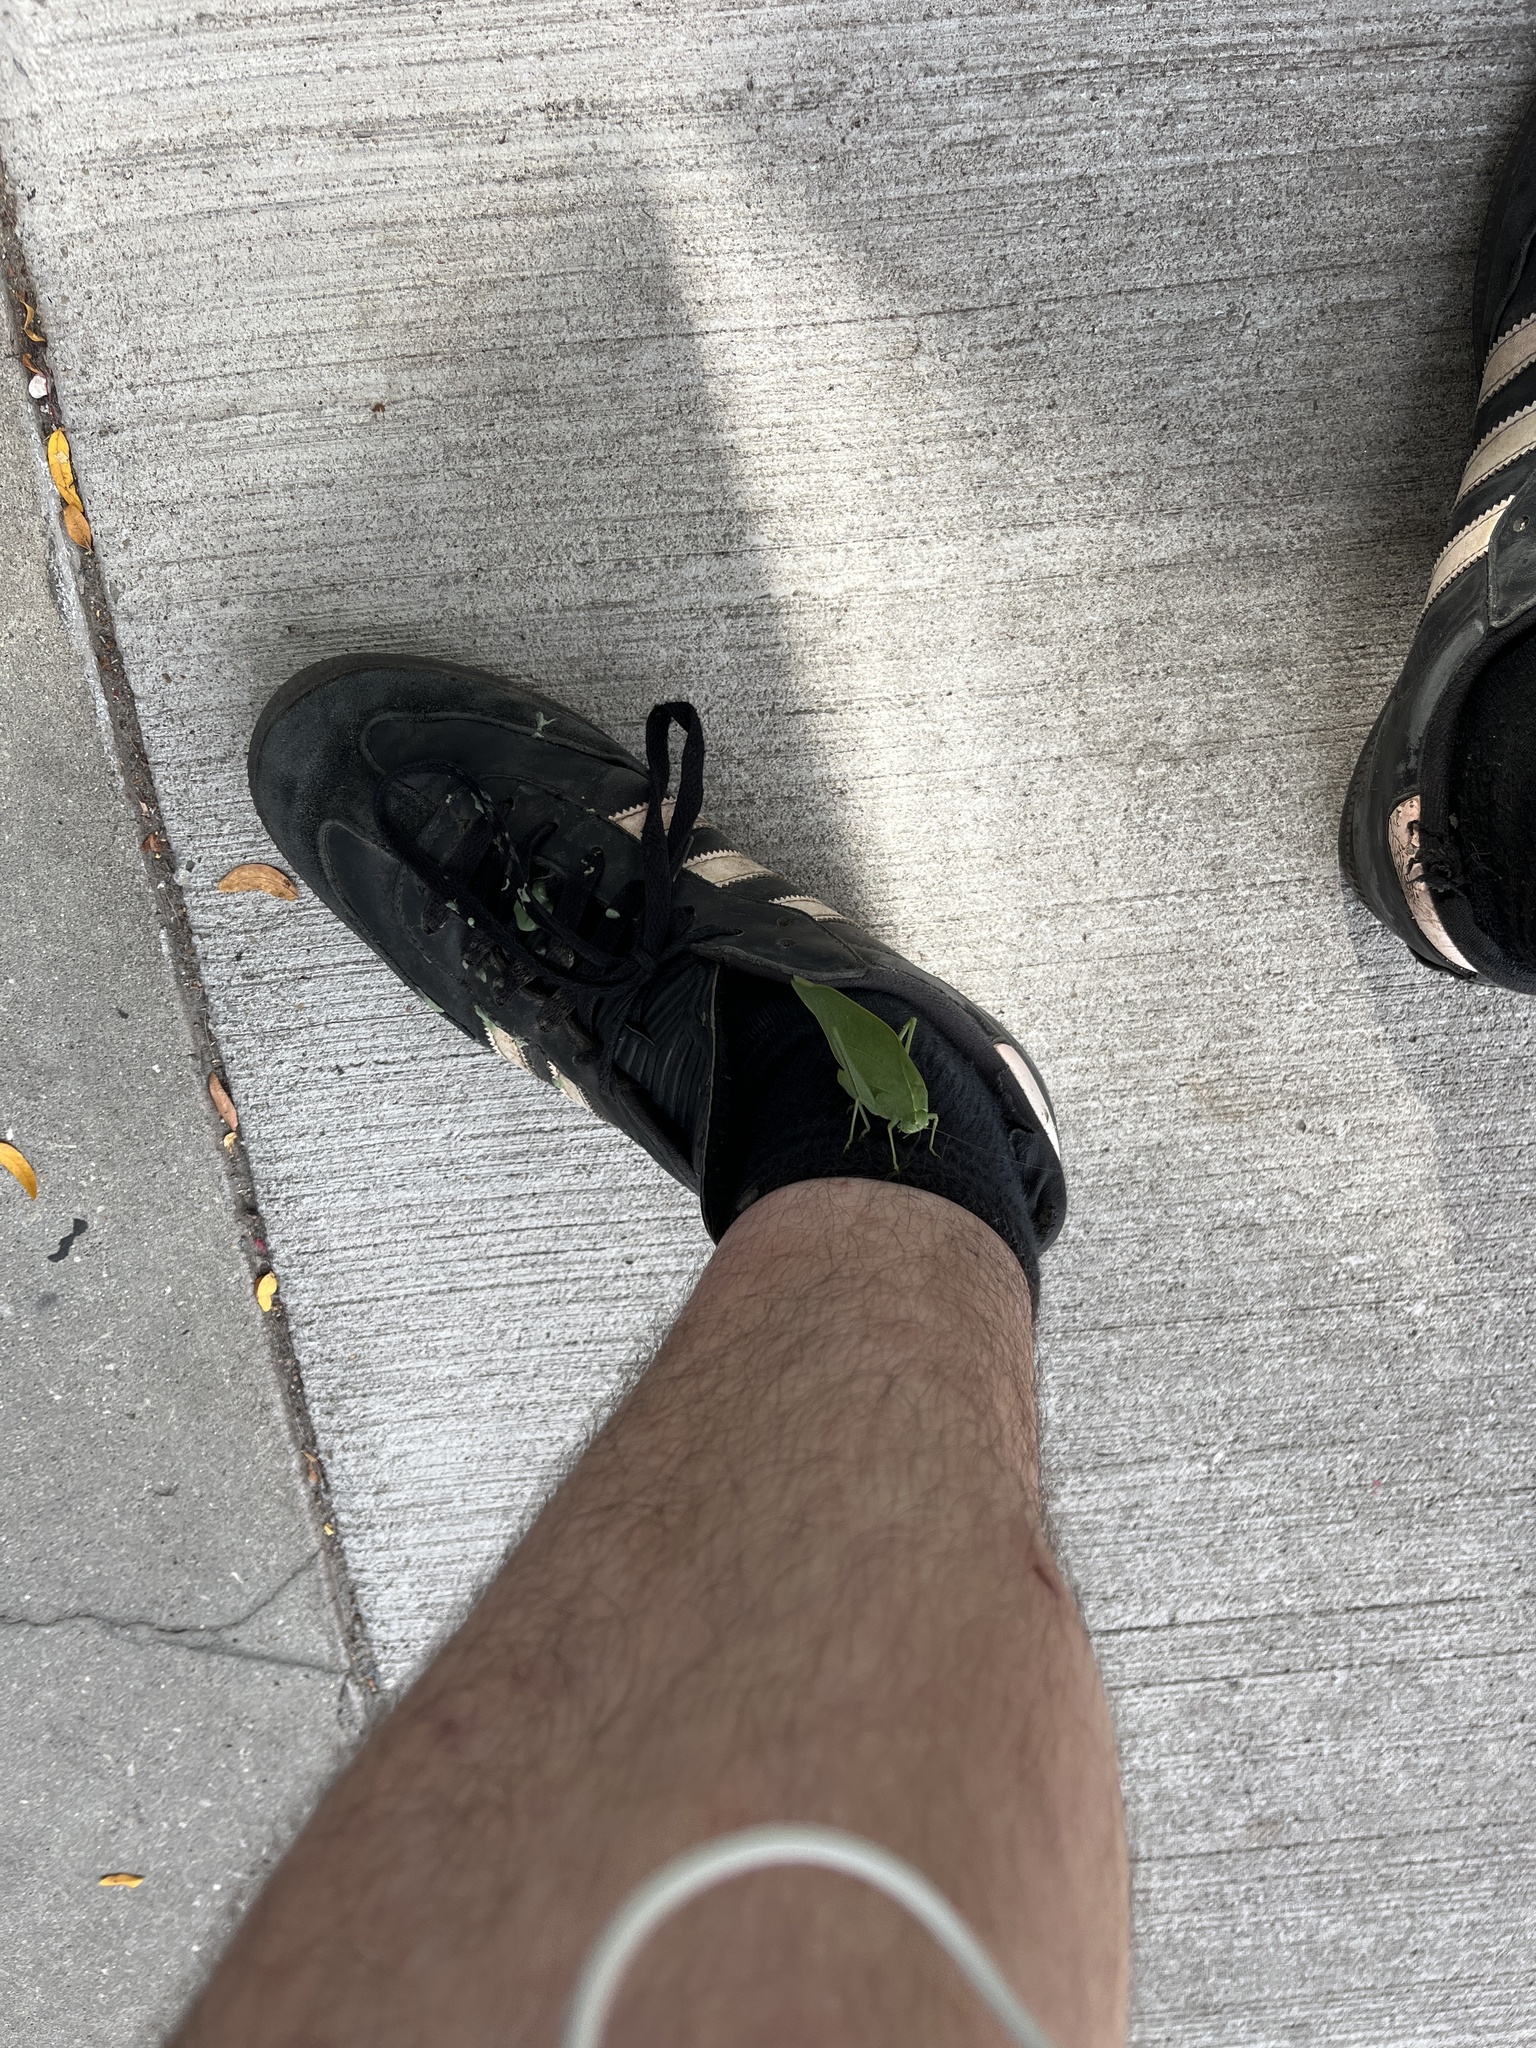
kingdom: Animalia
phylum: Arthropoda
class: Insecta
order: Orthoptera
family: Tettigoniidae
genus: Microcentrum
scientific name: Microcentrum rhombifolium
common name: Broad-winged katydid
